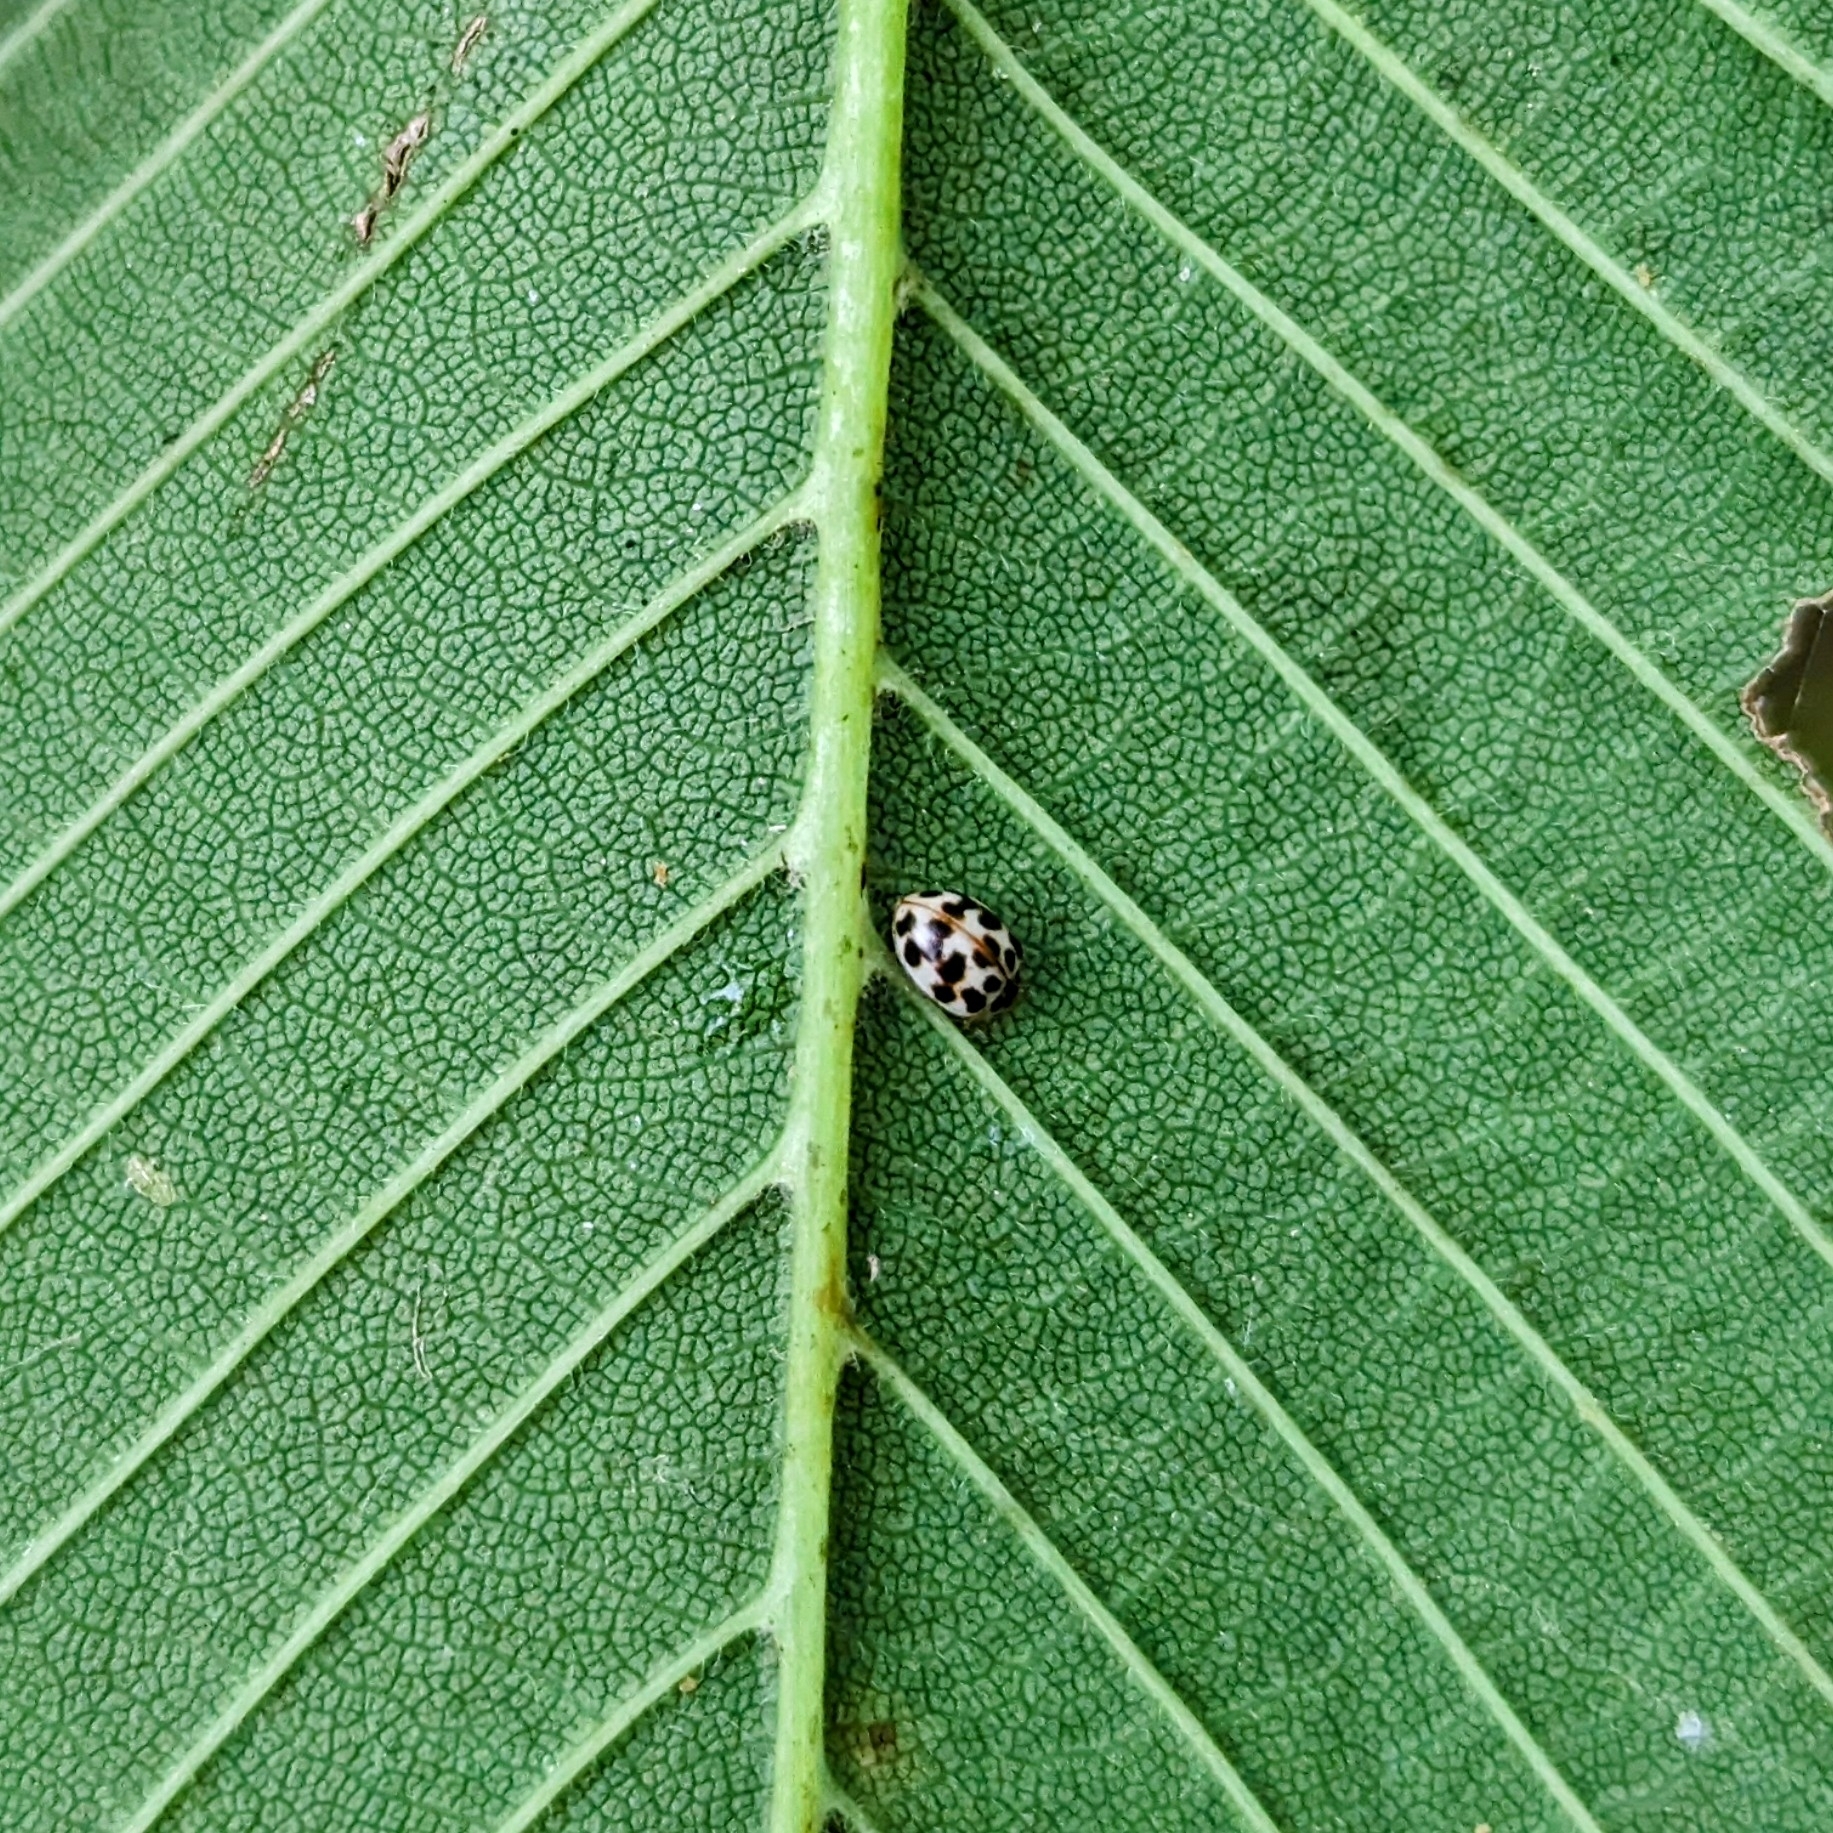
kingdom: Animalia
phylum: Arthropoda
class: Insecta
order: Coleoptera
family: Coccinellidae
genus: Psyllobora
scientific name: Psyllobora vigintimaculata
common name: Ladybird beetle
